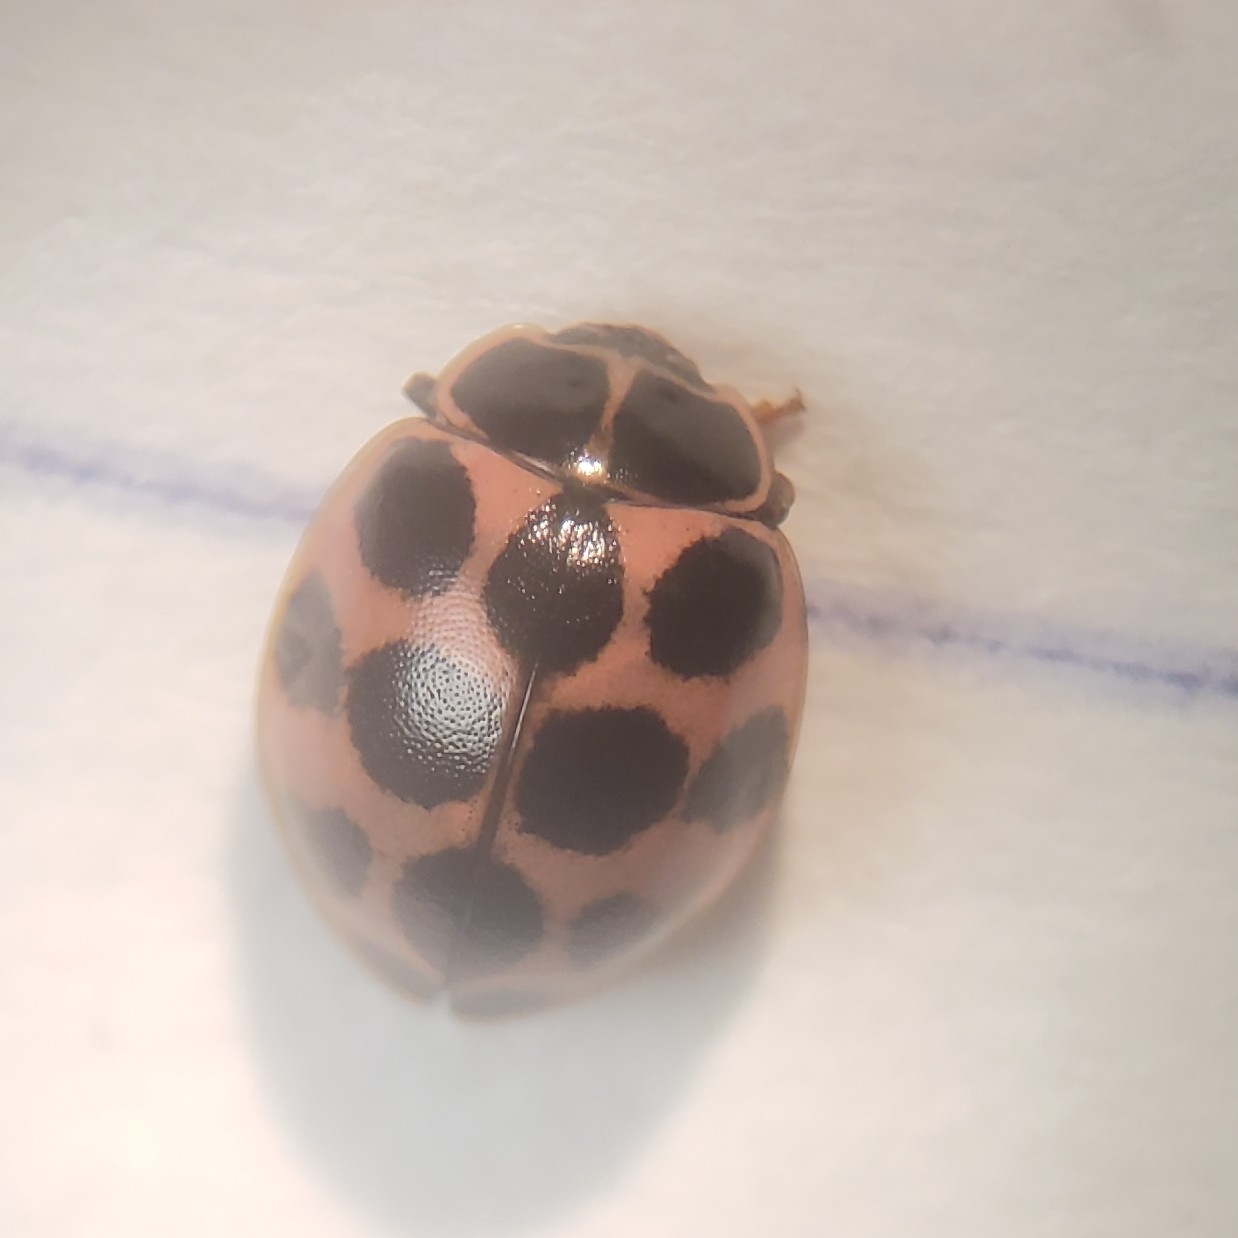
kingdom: Animalia
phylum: Arthropoda
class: Insecta
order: Coleoptera
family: Coccinellidae
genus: Calvia
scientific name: Calvia quatuordecimguttata
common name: Cream-spot ladybird
